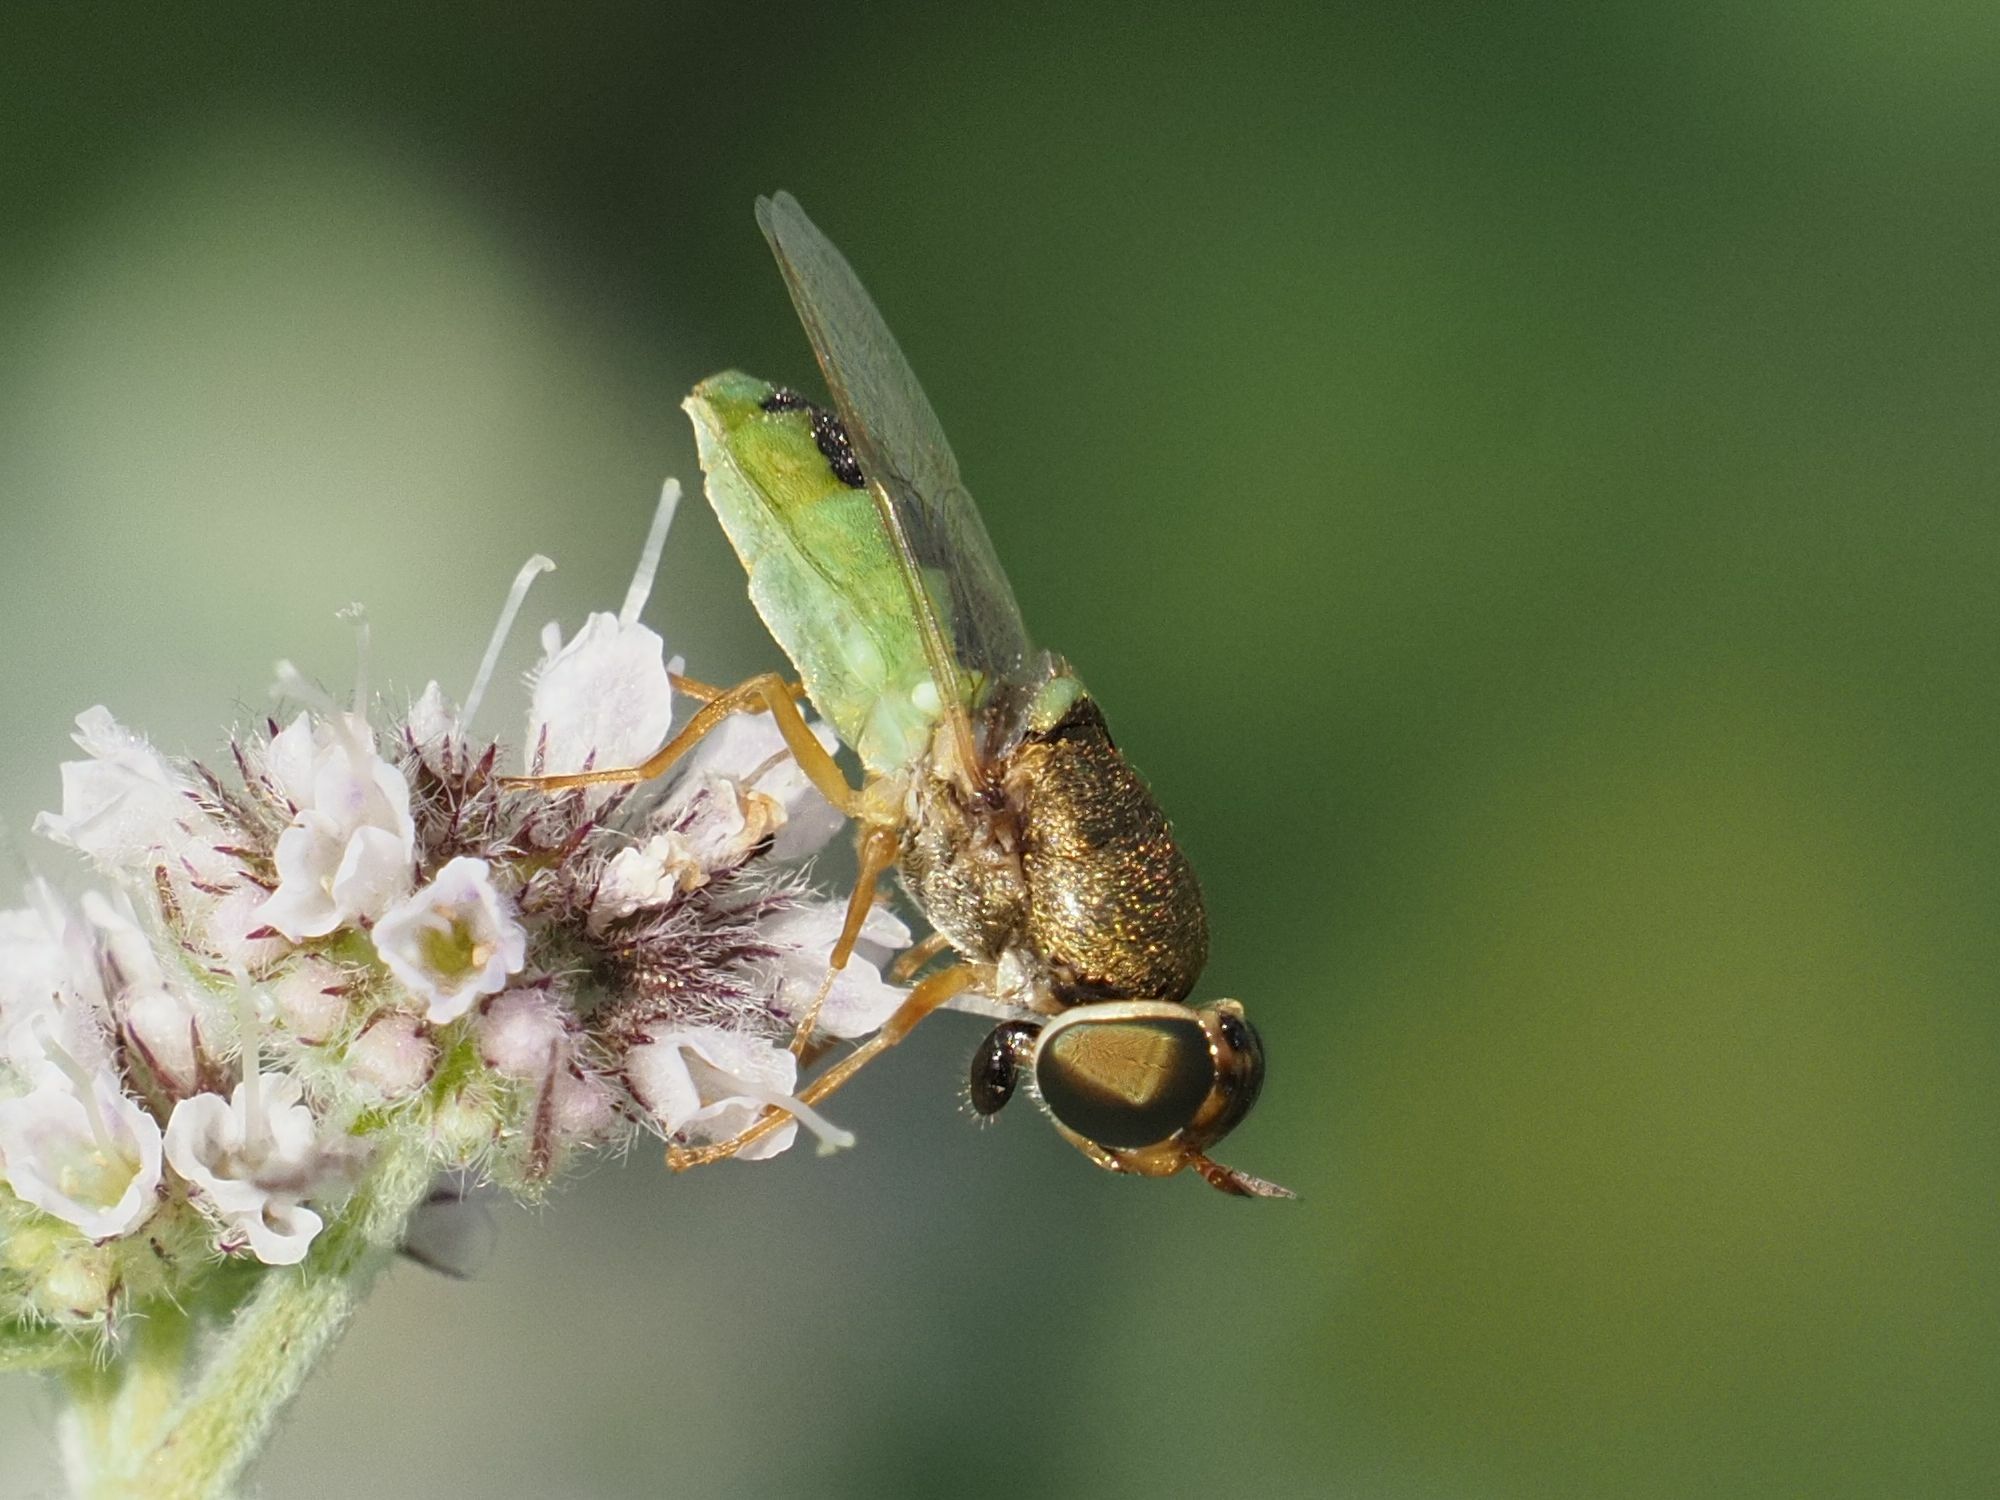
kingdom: Animalia
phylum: Arthropoda
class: Insecta
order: Diptera
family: Stratiomyidae
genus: Odontomyia
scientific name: Odontomyia angulata
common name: Orange-horned green colonel
